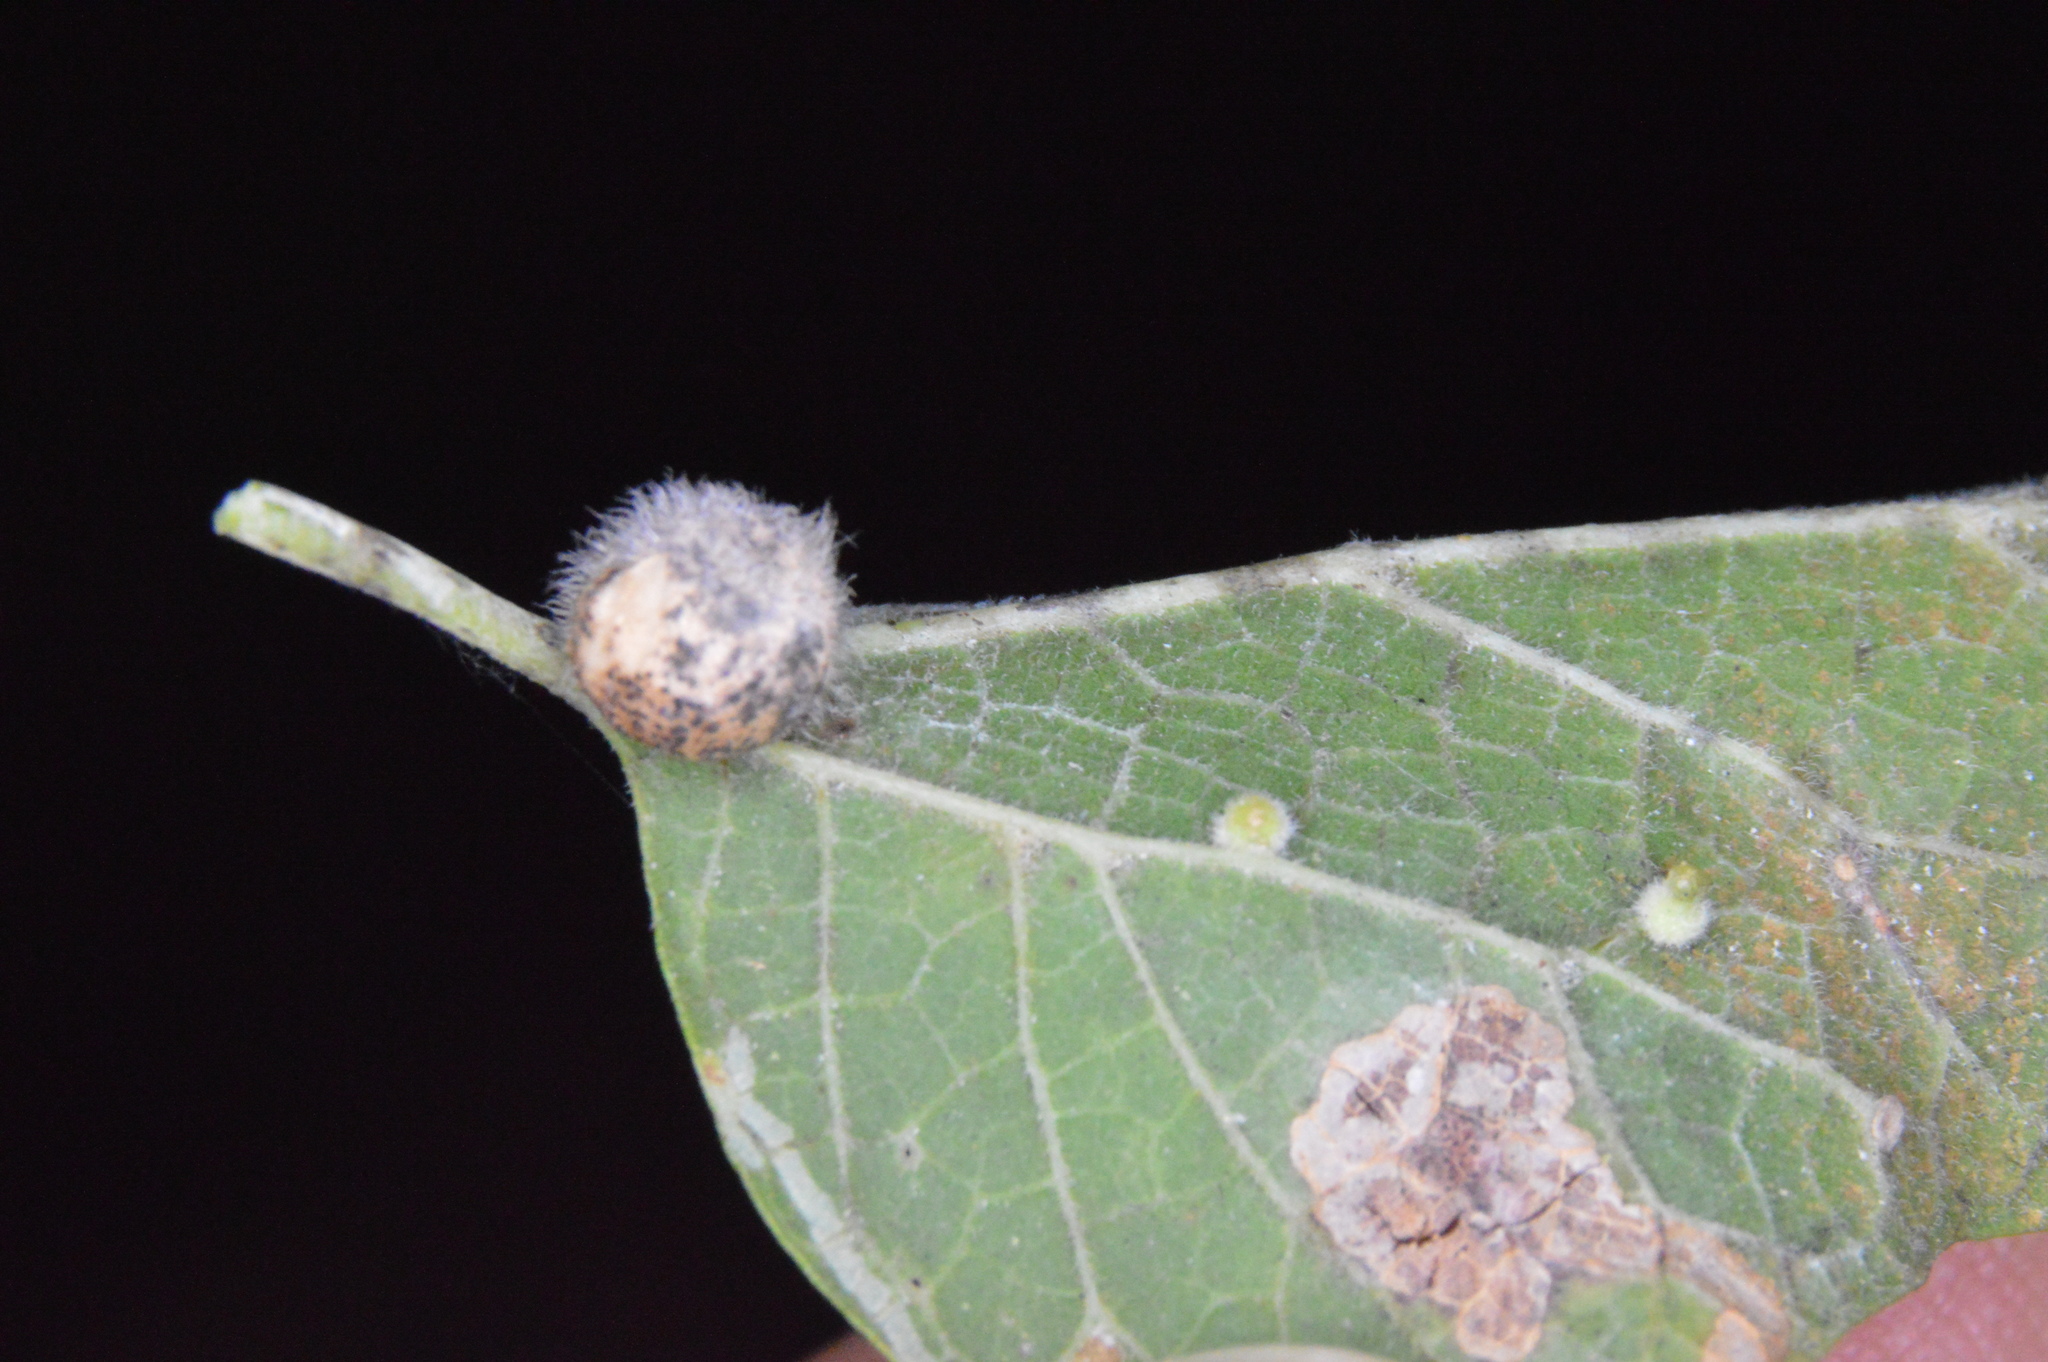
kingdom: Animalia
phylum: Arthropoda
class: Insecta
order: Diptera
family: Cecidomyiidae
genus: Celticecis
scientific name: Celticecis pubescens
